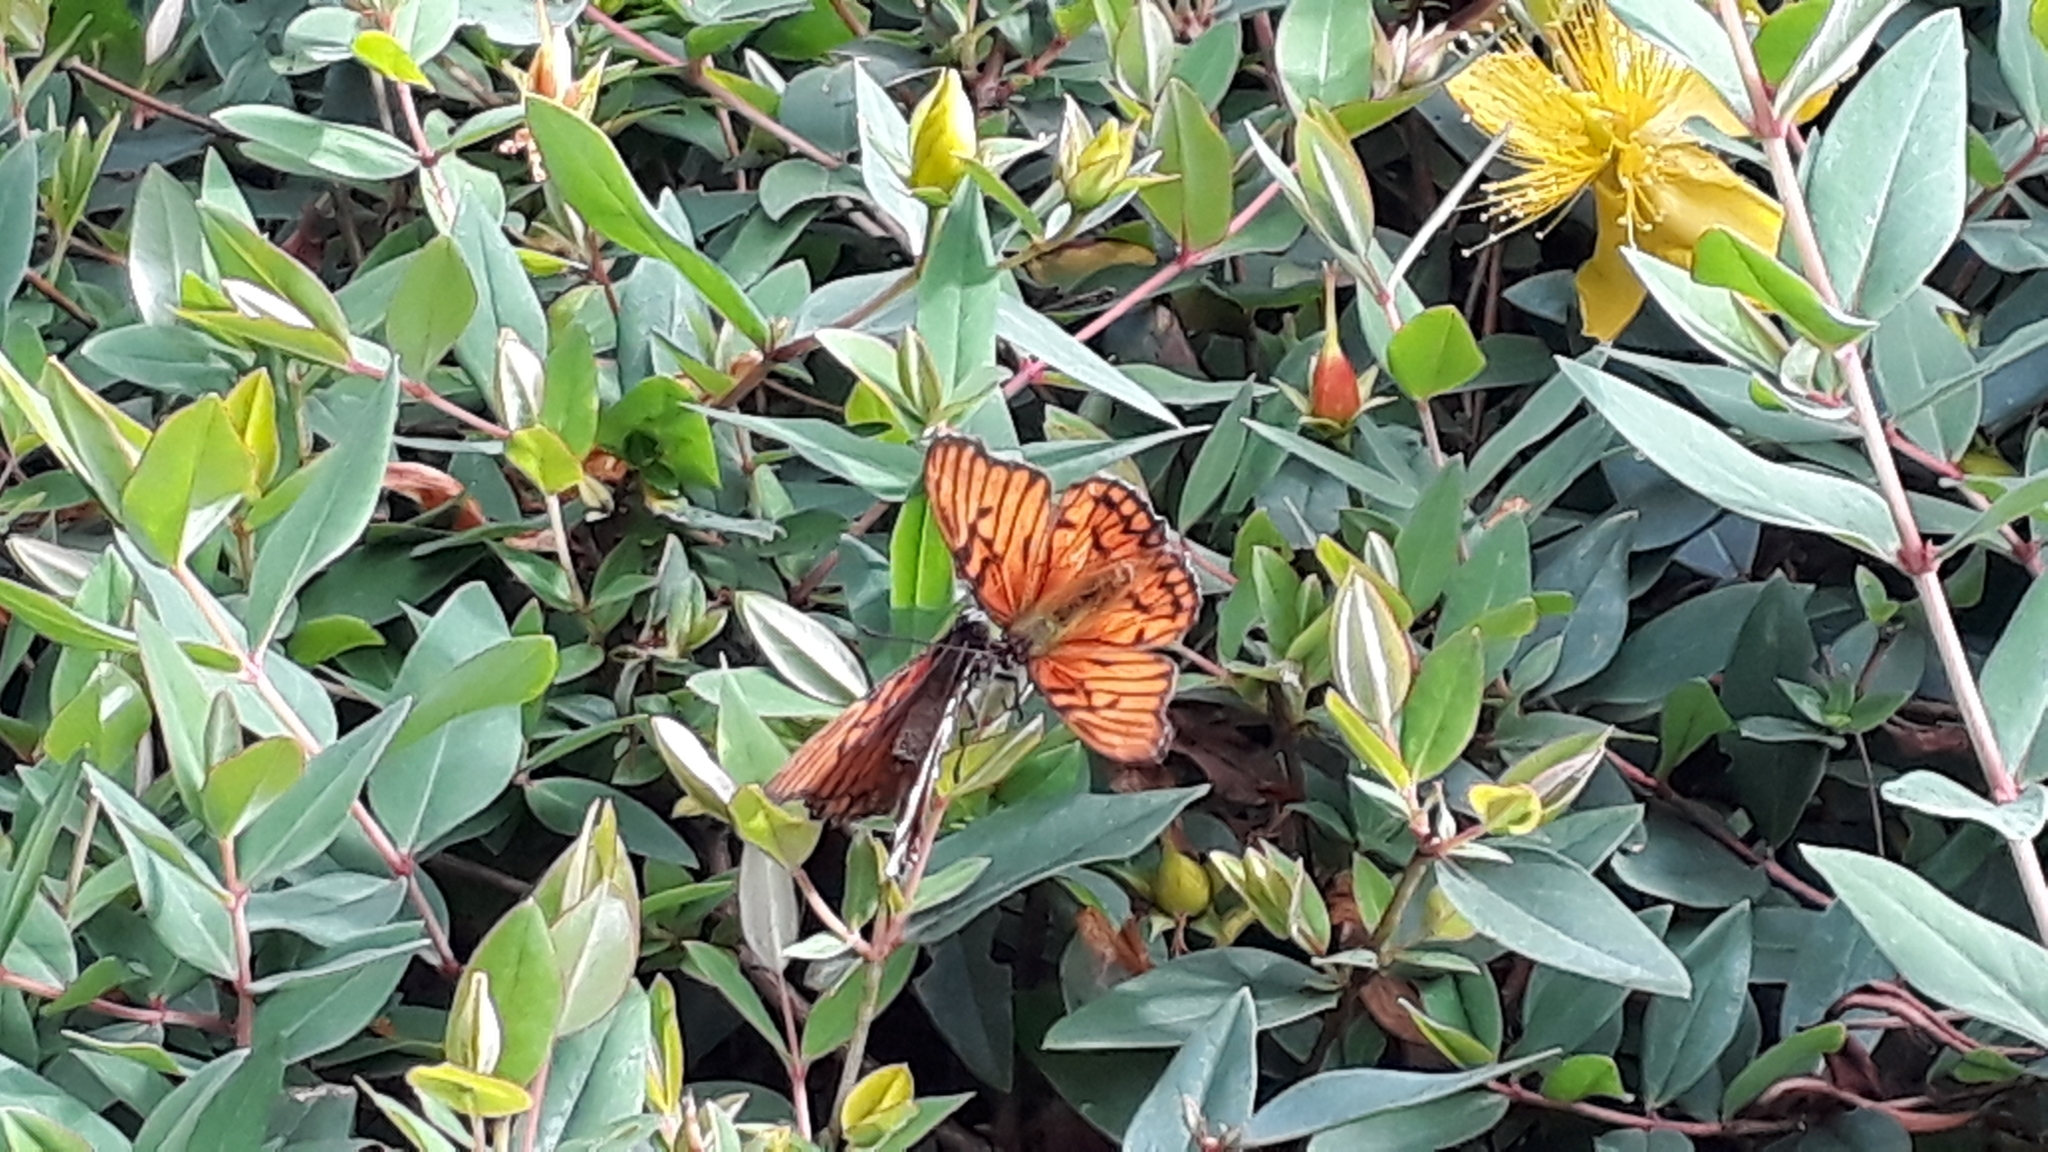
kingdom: Animalia
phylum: Arthropoda
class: Insecta
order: Lepidoptera
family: Nymphalidae
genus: Dione
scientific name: Dione glycera
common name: Andean silverspot
